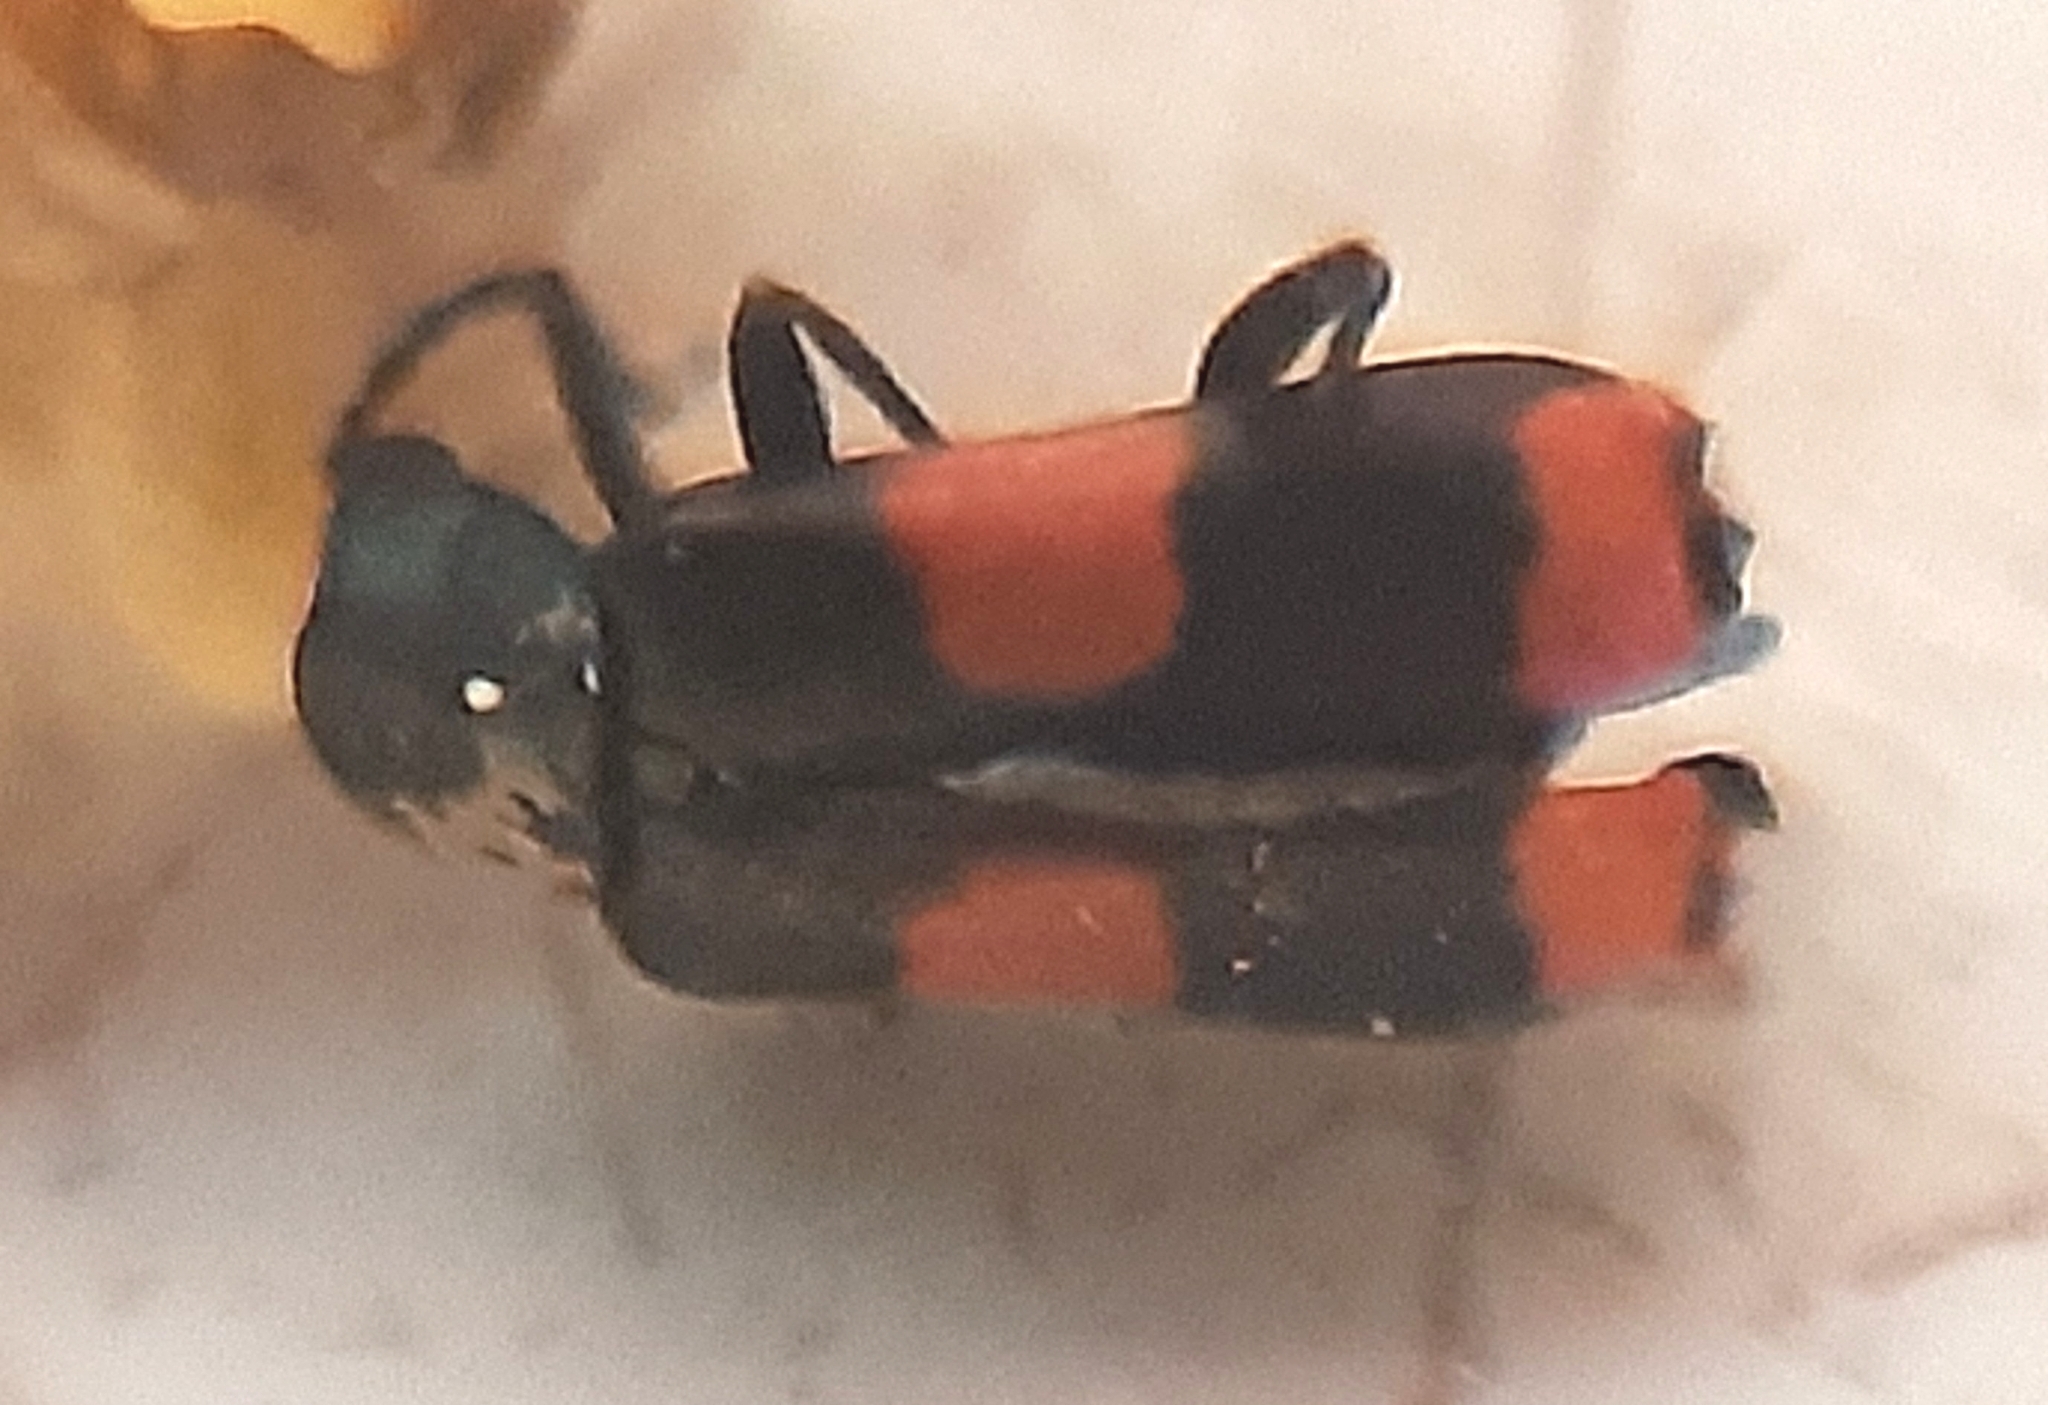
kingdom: Animalia
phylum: Arthropoda
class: Insecta
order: Coleoptera
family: Melyridae
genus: Anthocomus
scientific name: Anthocomus fasciatus
